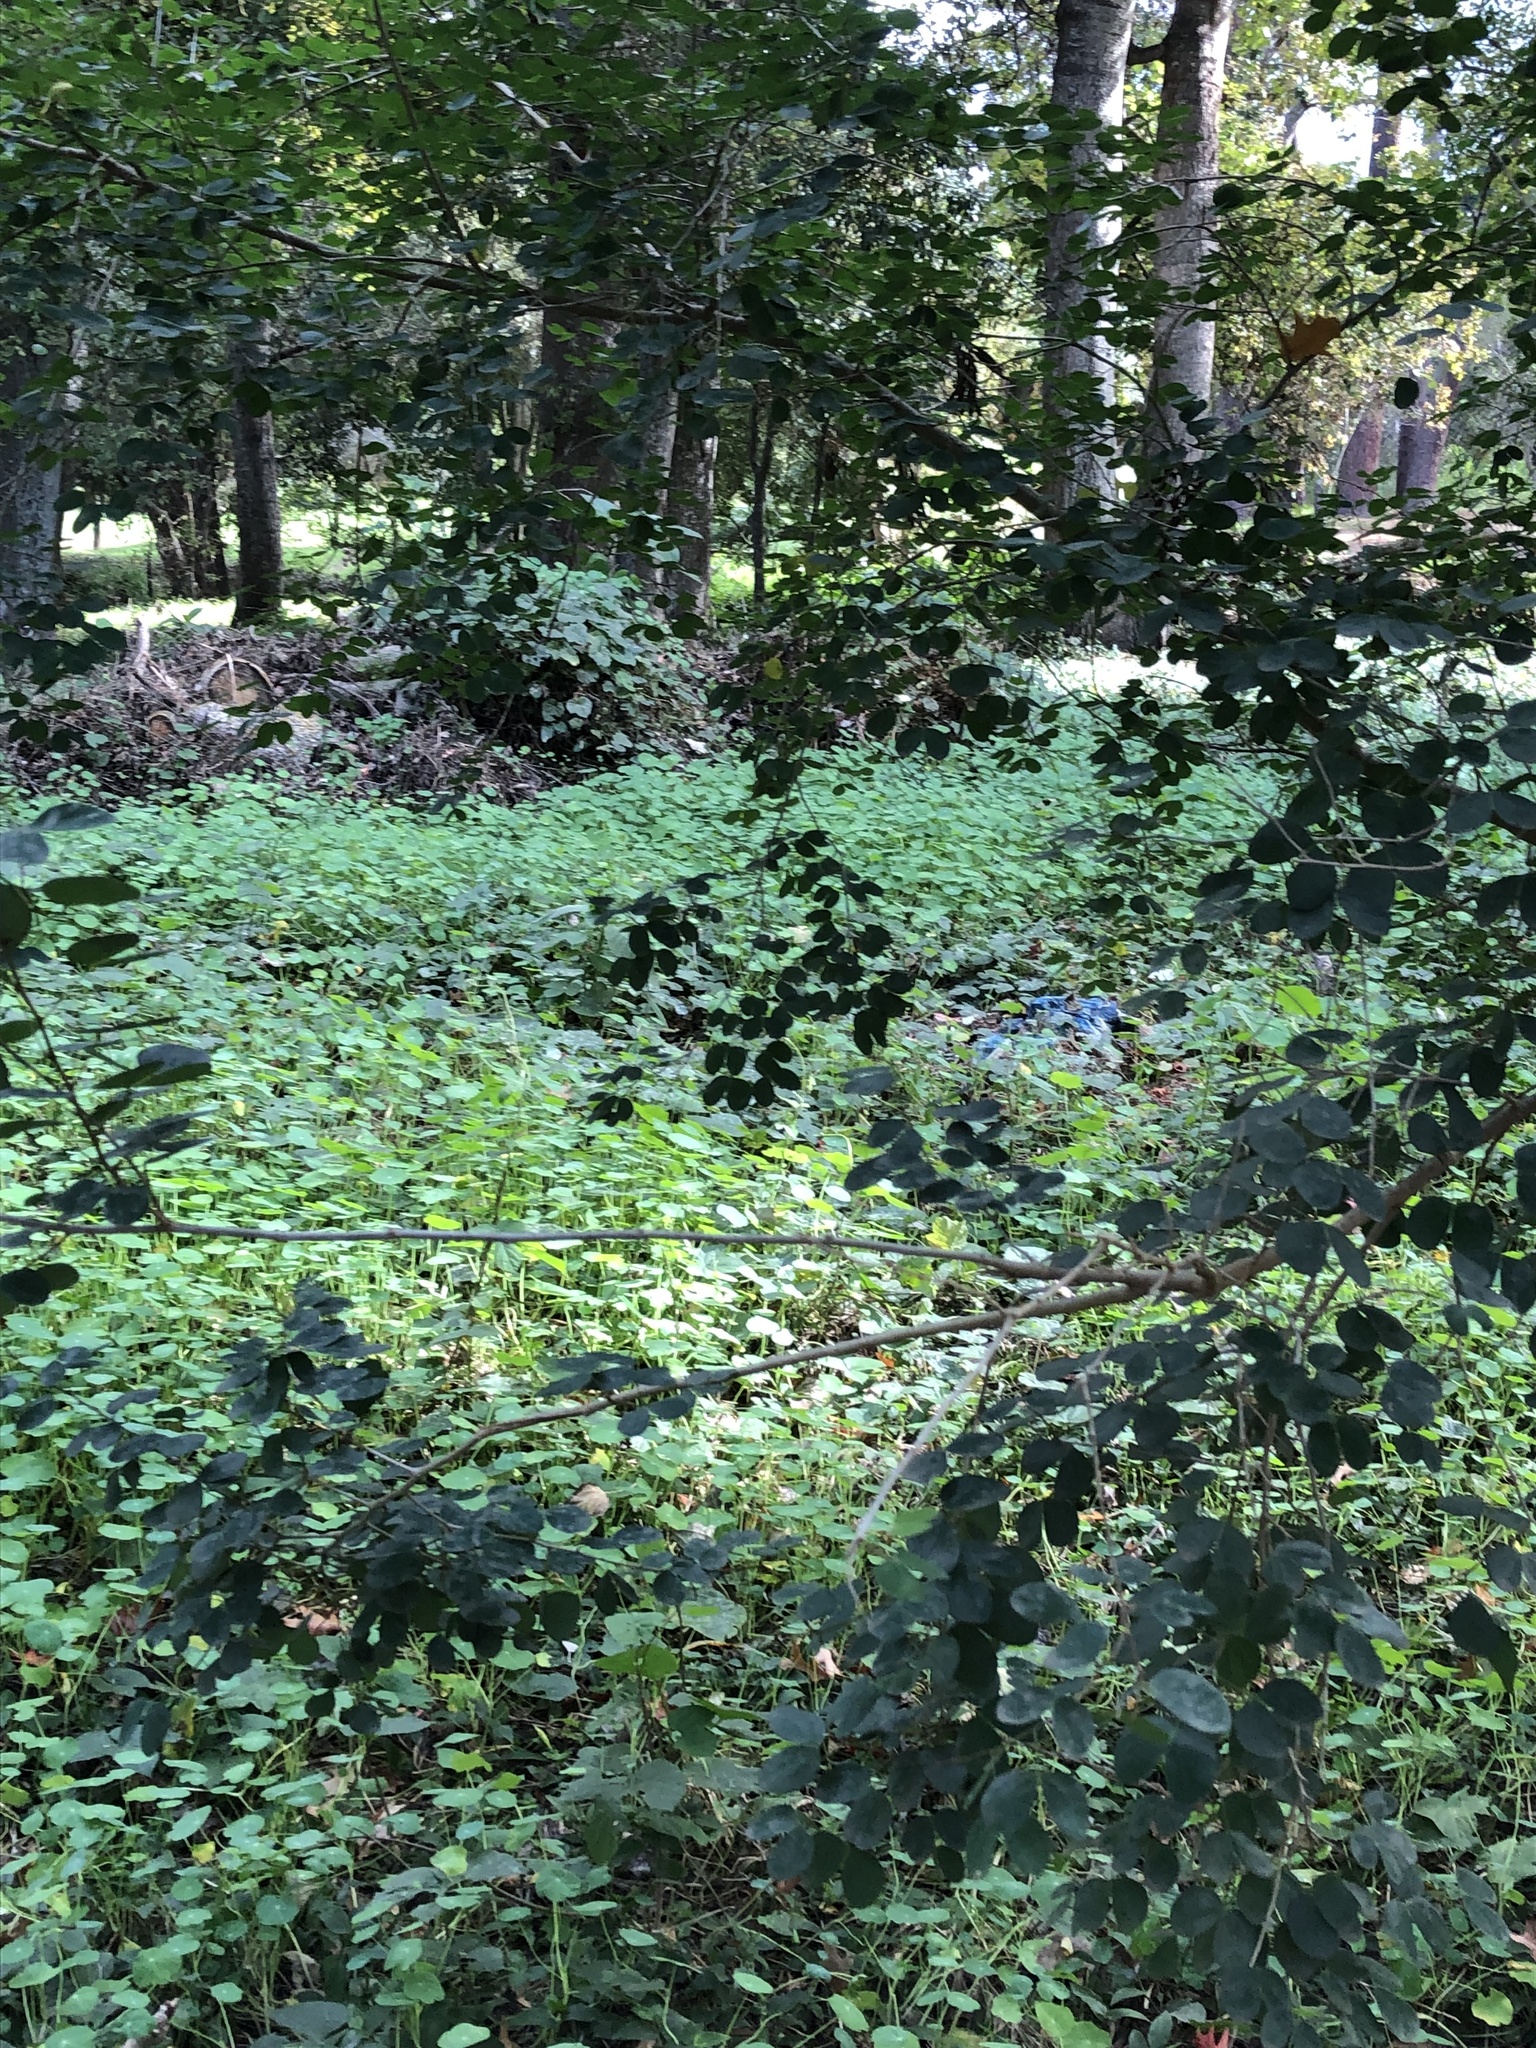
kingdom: Plantae
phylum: Tracheophyta
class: Magnoliopsida
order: Brassicales
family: Tropaeolaceae
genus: Tropaeolum
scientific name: Tropaeolum majus
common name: Nasturtium
